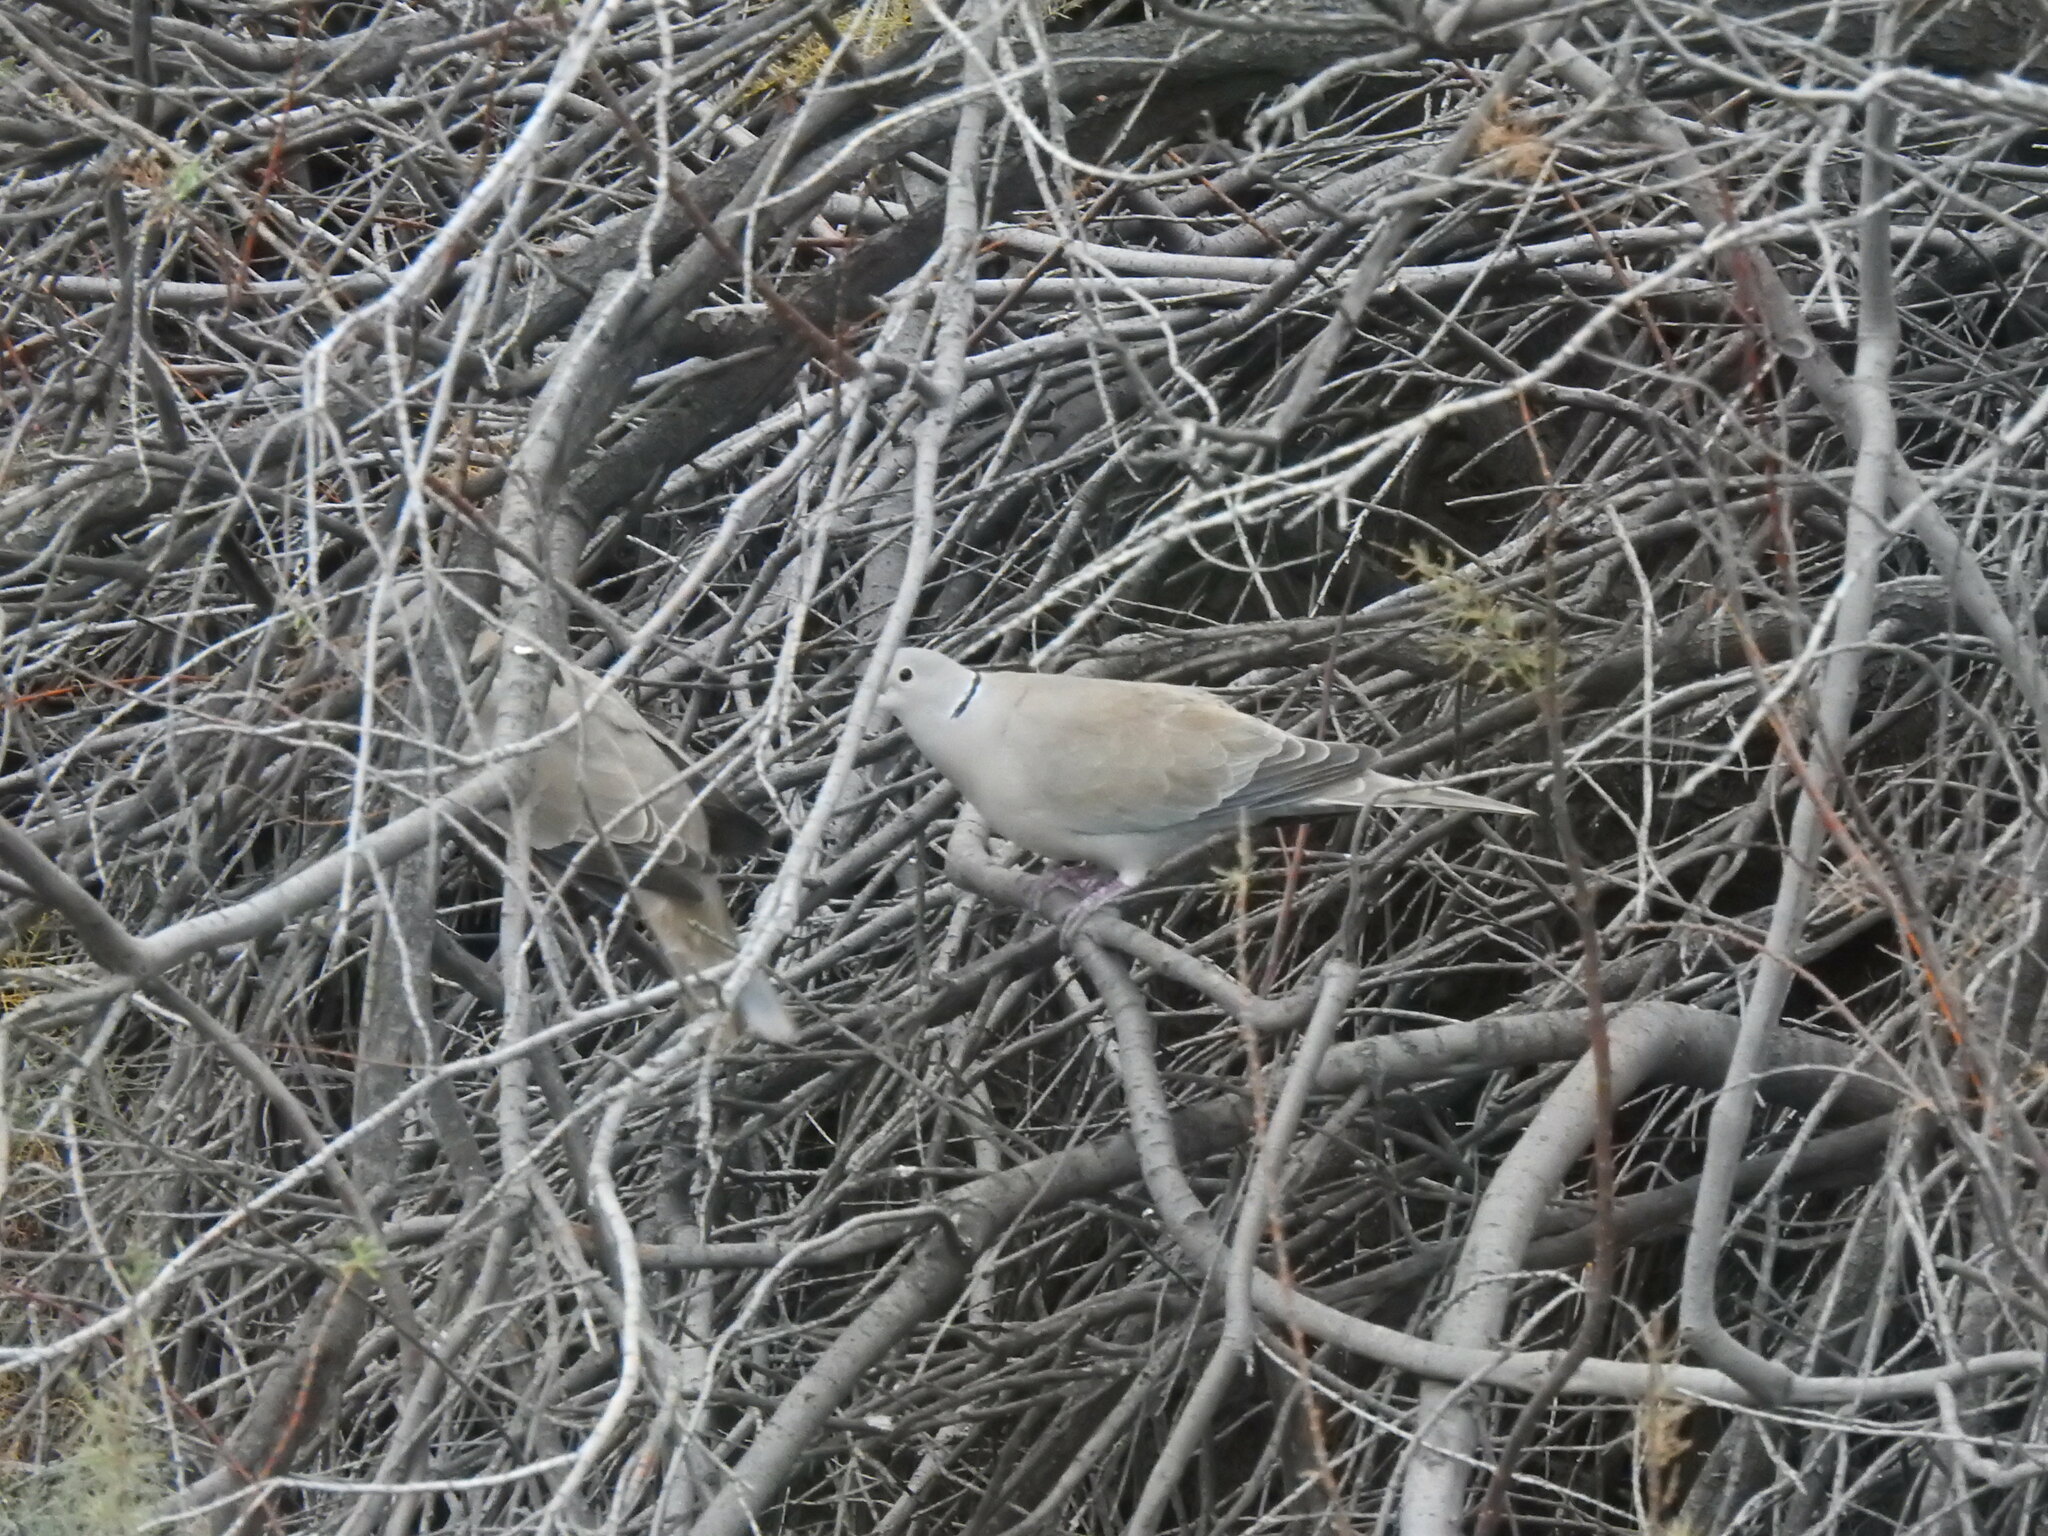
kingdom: Animalia
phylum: Chordata
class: Aves
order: Columbiformes
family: Columbidae
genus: Streptopelia
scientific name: Streptopelia decaocto
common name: Eurasian collared dove
